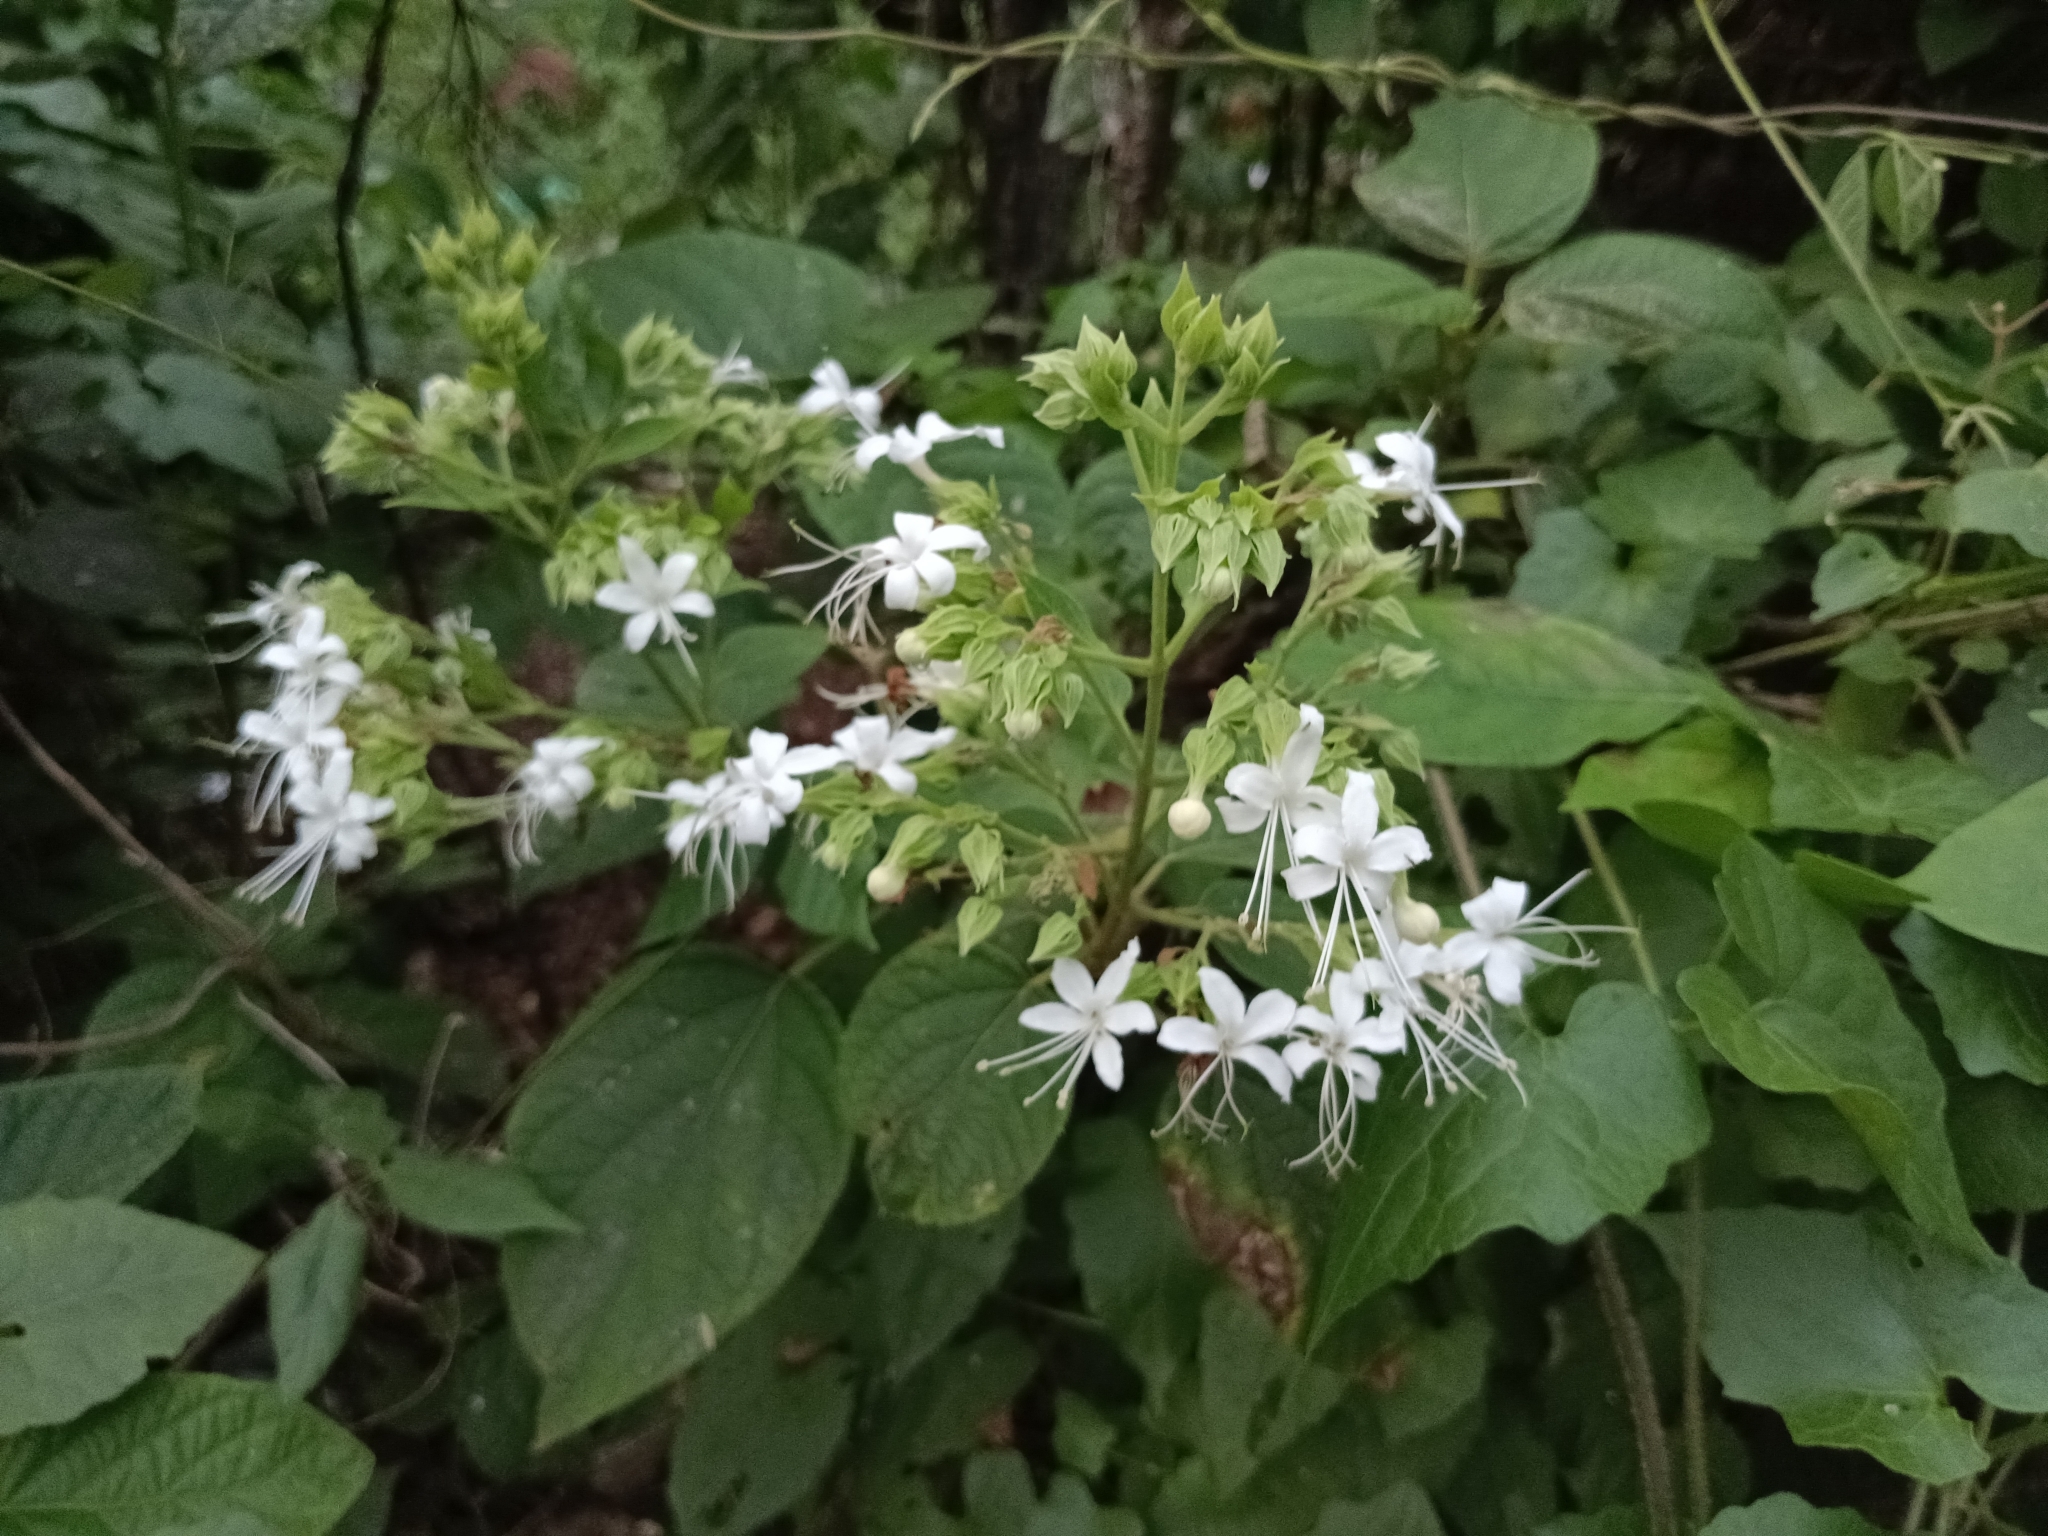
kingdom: Plantae
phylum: Tracheophyta
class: Magnoliopsida
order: Lamiales
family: Lamiaceae
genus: Clerodendrum
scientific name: Clerodendrum infortunatum
